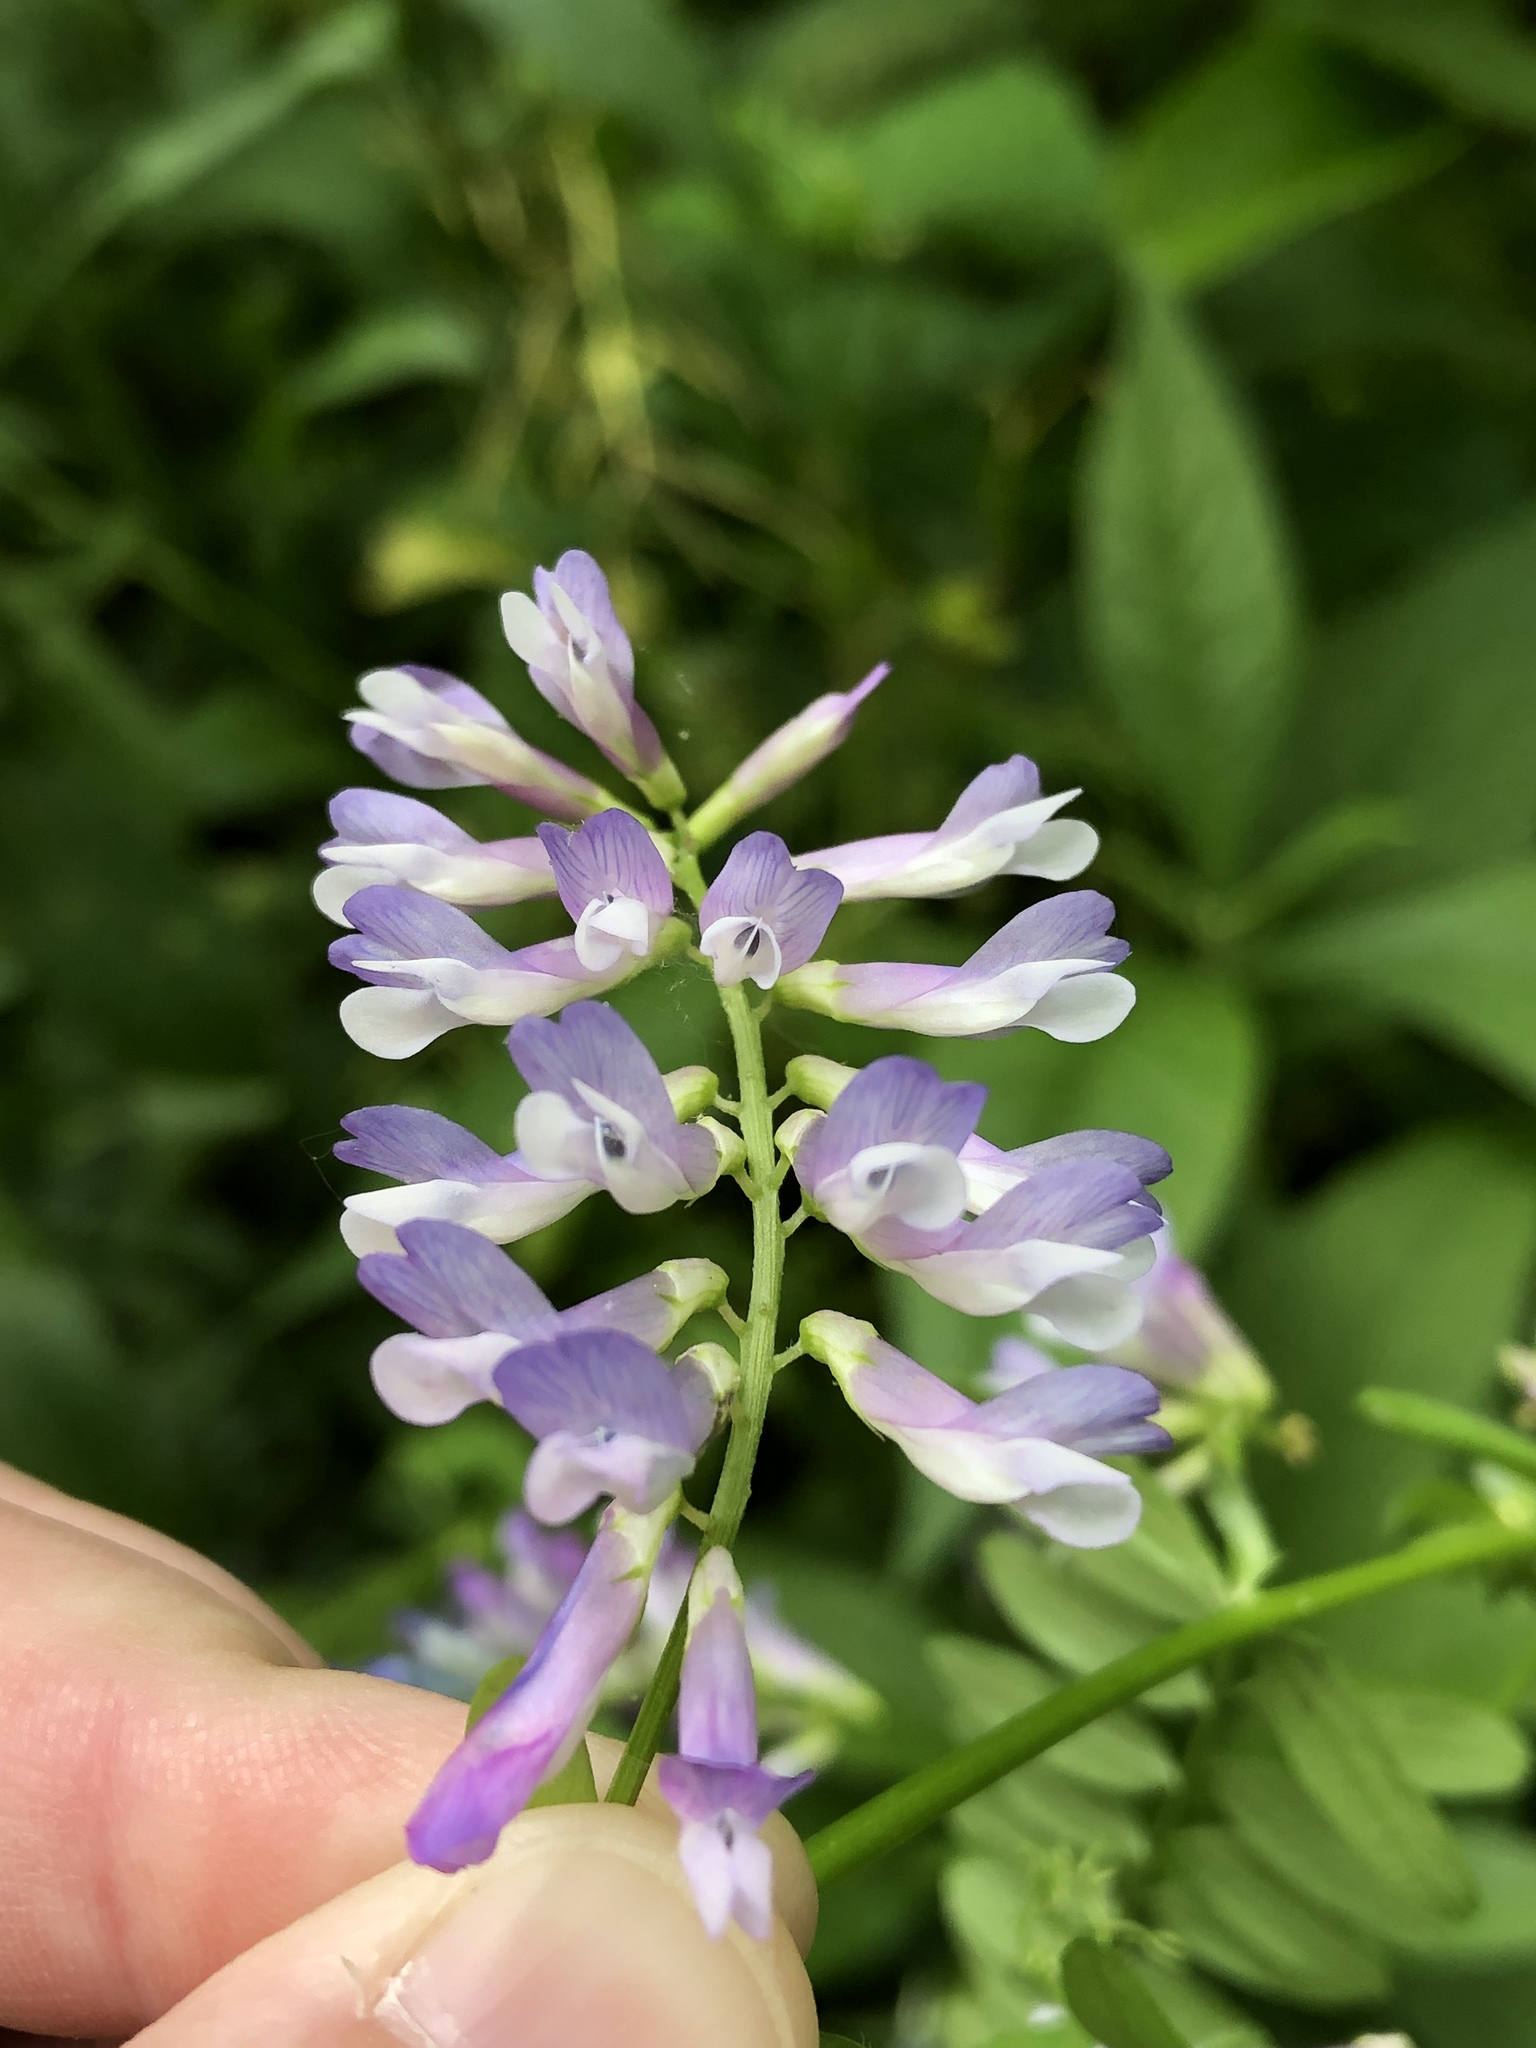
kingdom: Plantae
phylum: Tracheophyta
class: Magnoliopsida
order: Fabales
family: Fabaceae
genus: Vicia
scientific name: Vicia villosa
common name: Fodder vetch
